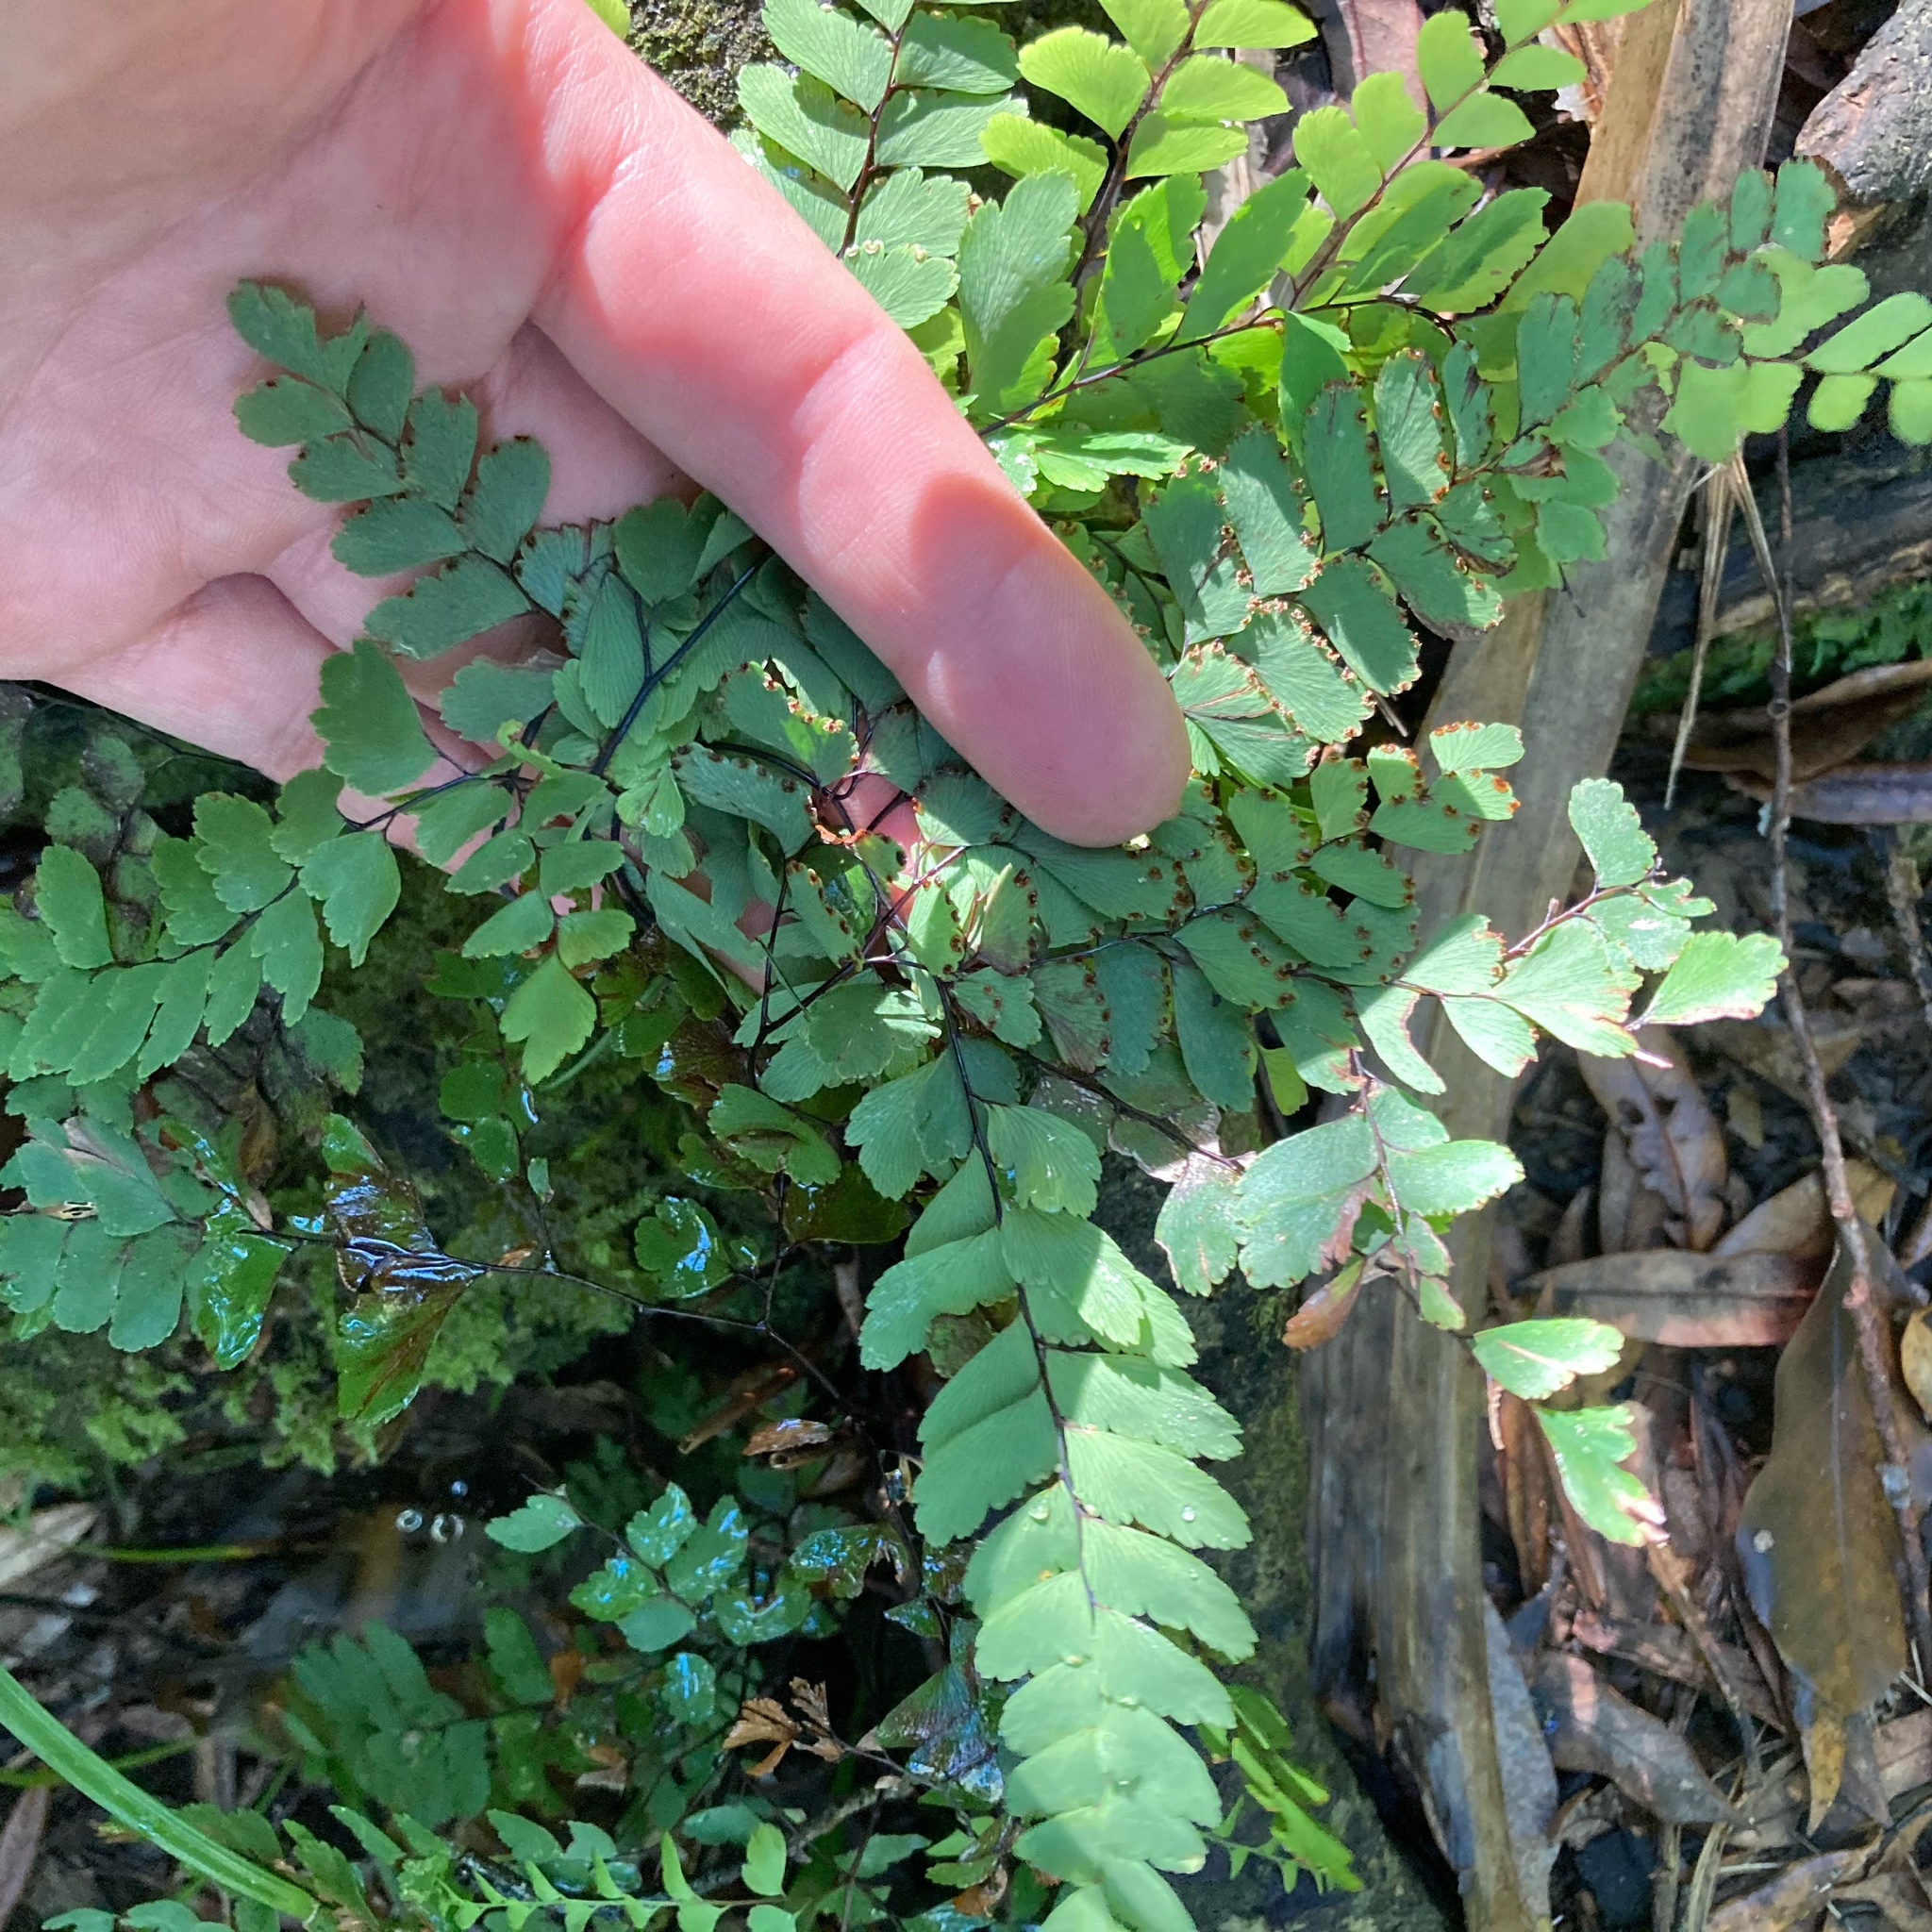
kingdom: Plantae
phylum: Tracheophyta
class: Polypodiopsida
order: Polypodiales
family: Pteridaceae
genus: Adiantum
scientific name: Adiantum cunninghamii
